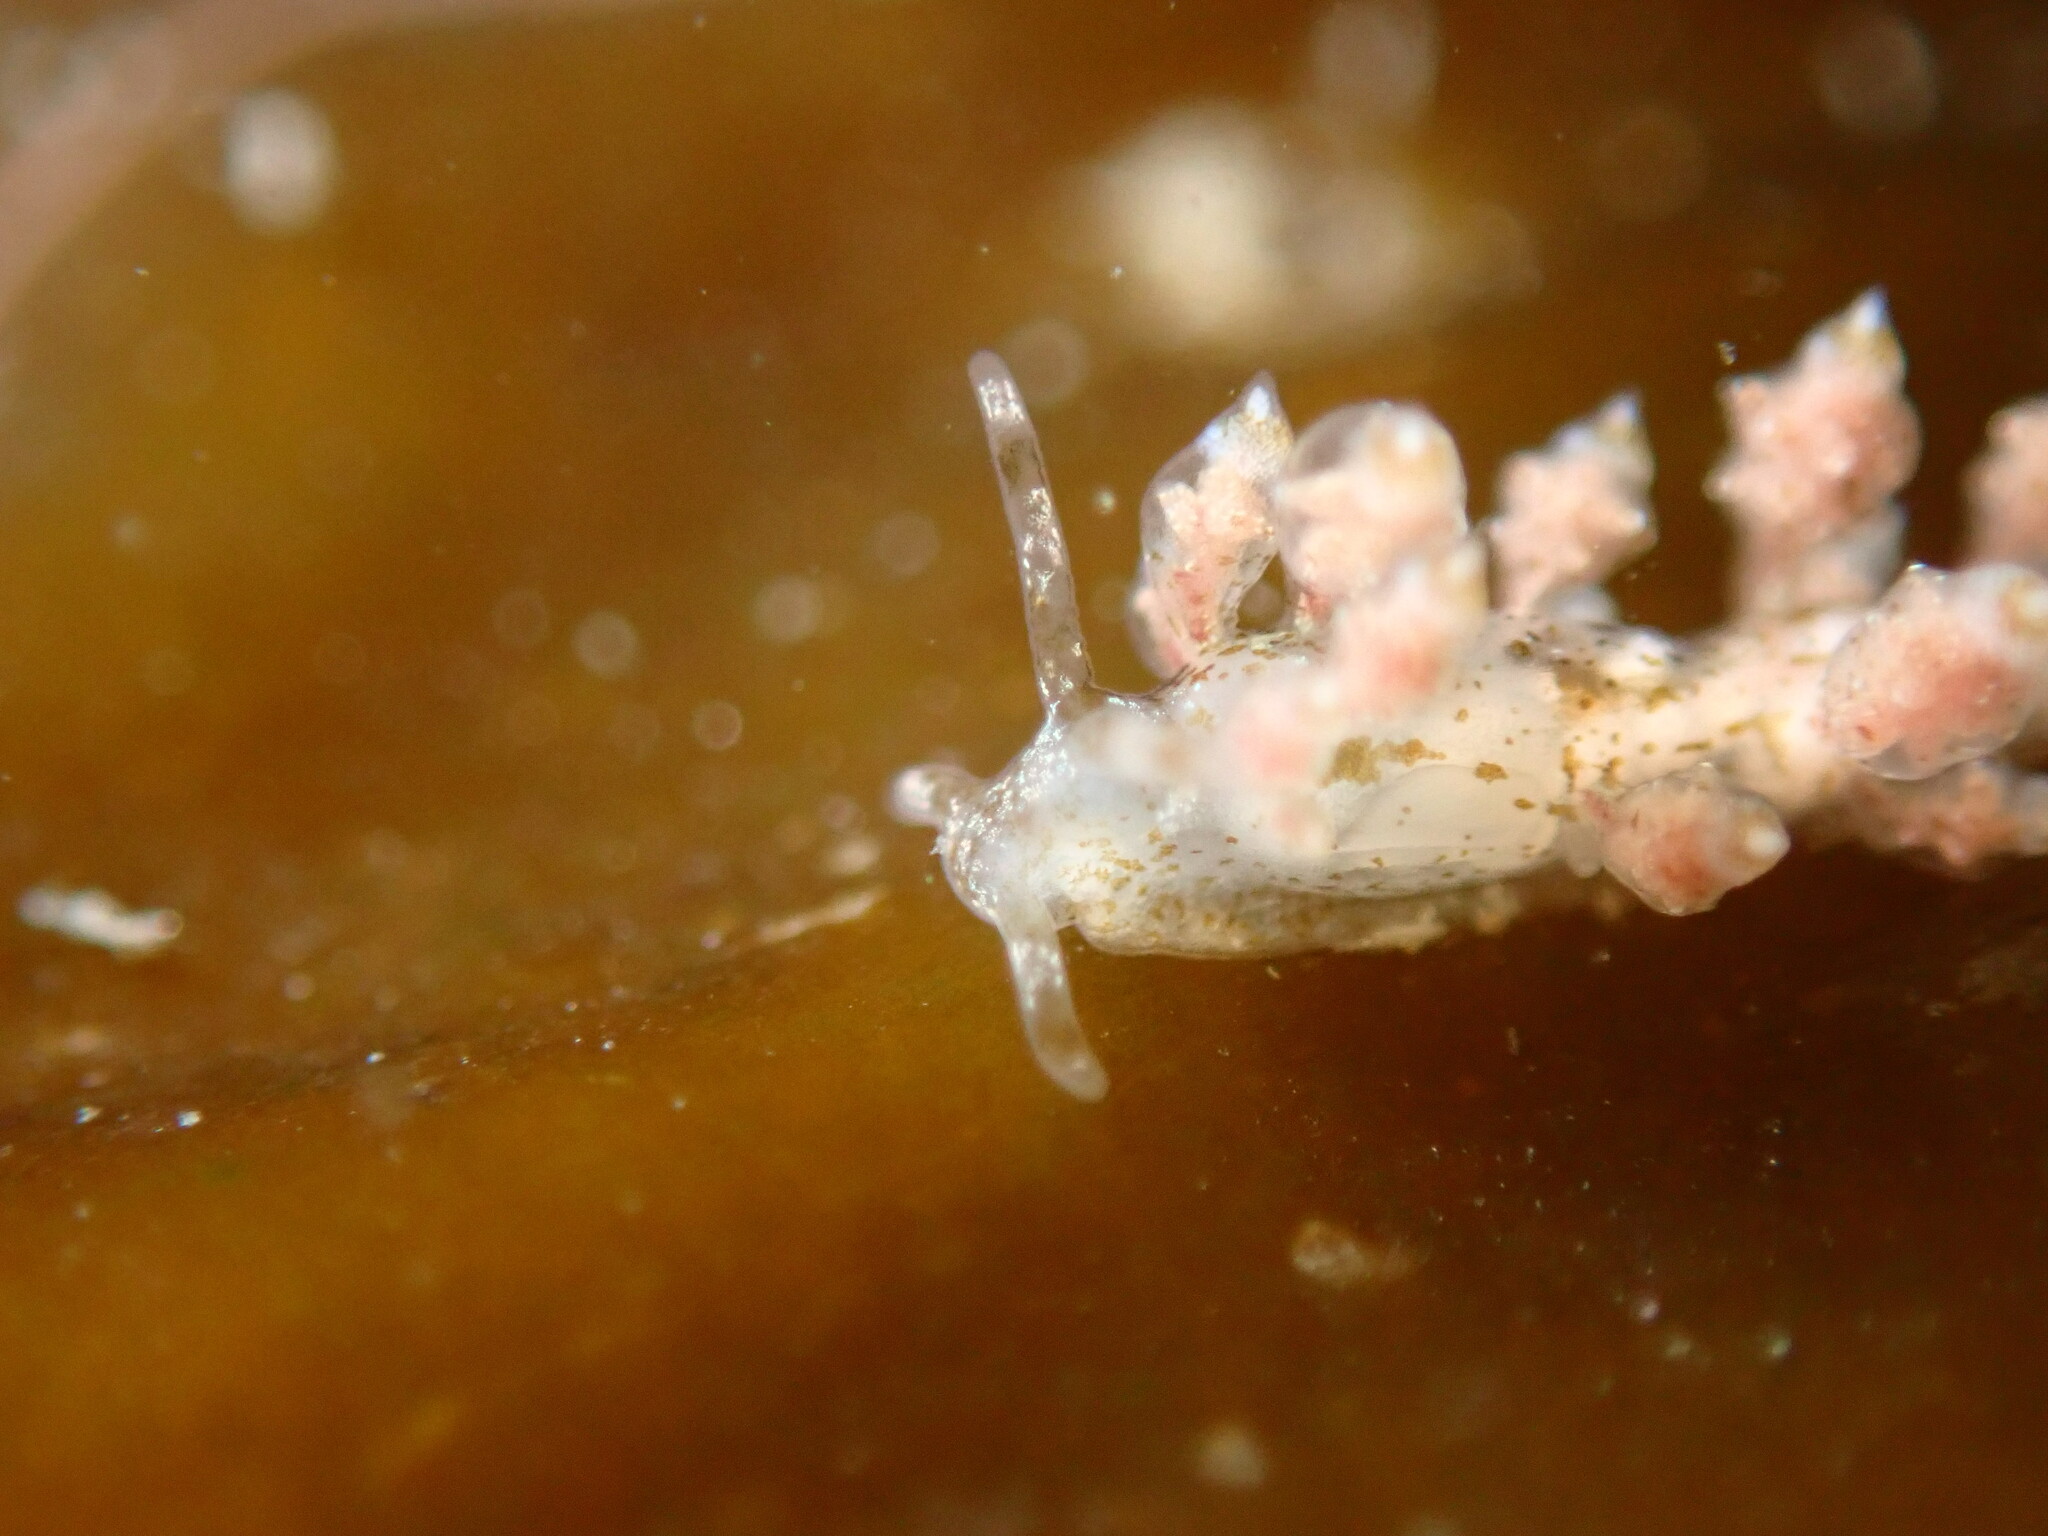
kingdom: Animalia
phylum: Mollusca
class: Gastropoda
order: Nudibranchia
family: Eubranchidae
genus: Eubranchus
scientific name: Eubranchus rustyus
